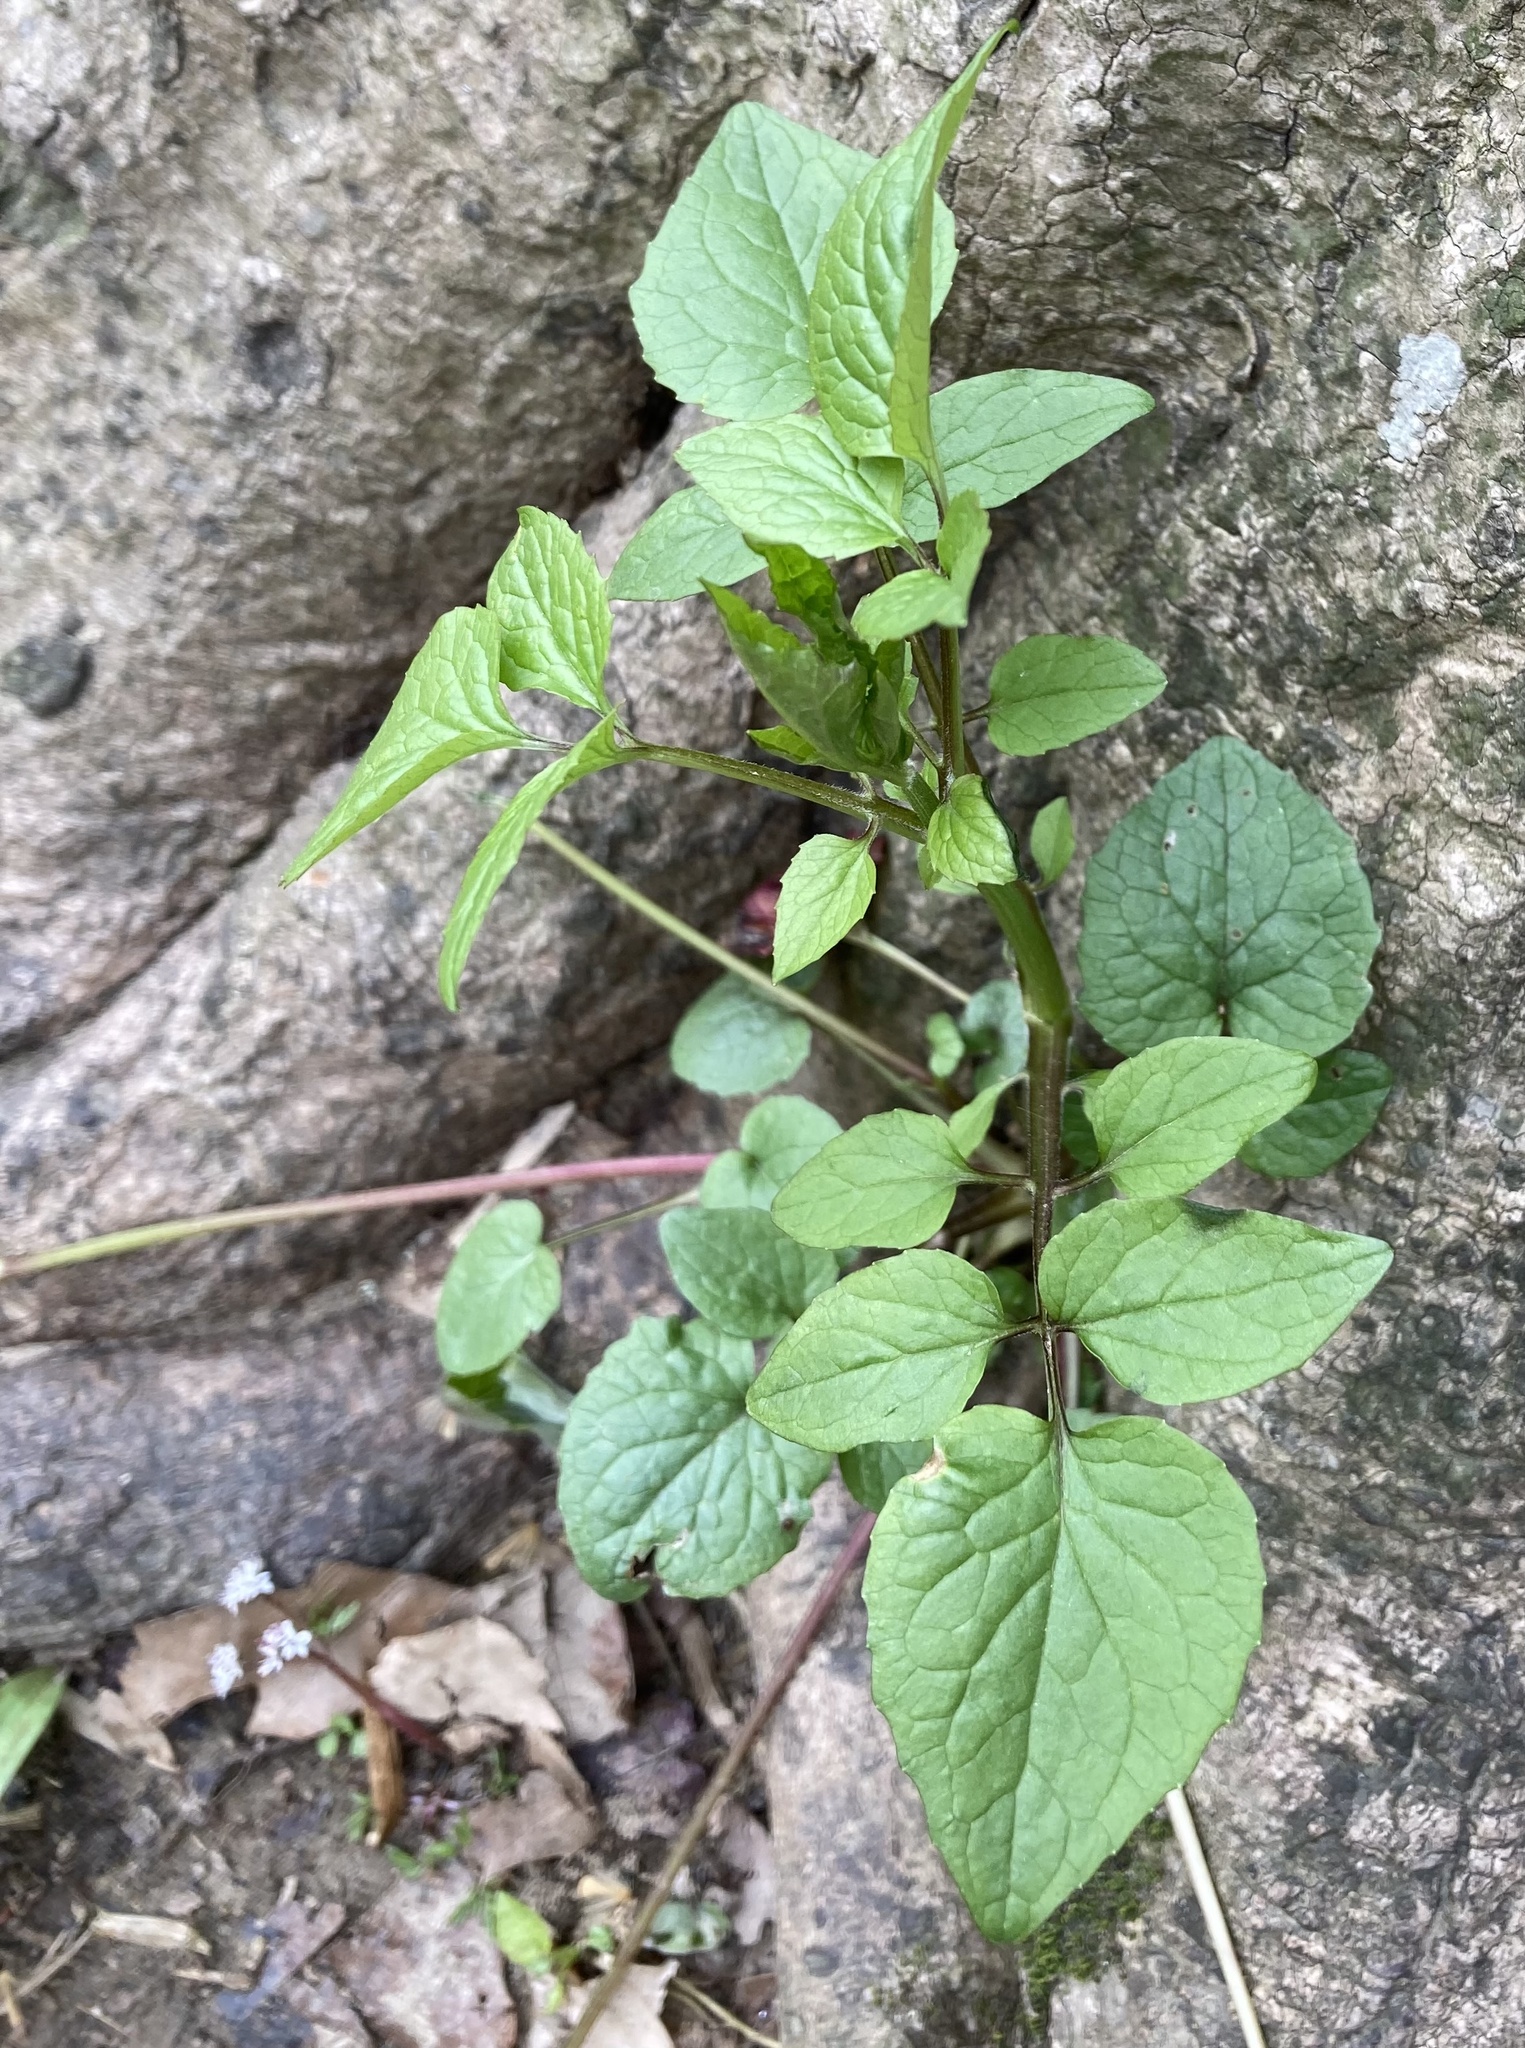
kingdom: Plantae
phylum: Tracheophyta
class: Magnoliopsida
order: Dipsacales
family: Caprifoliaceae
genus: Valeriana
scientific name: Valeriana pauciflora
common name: Long-tube valeriana
